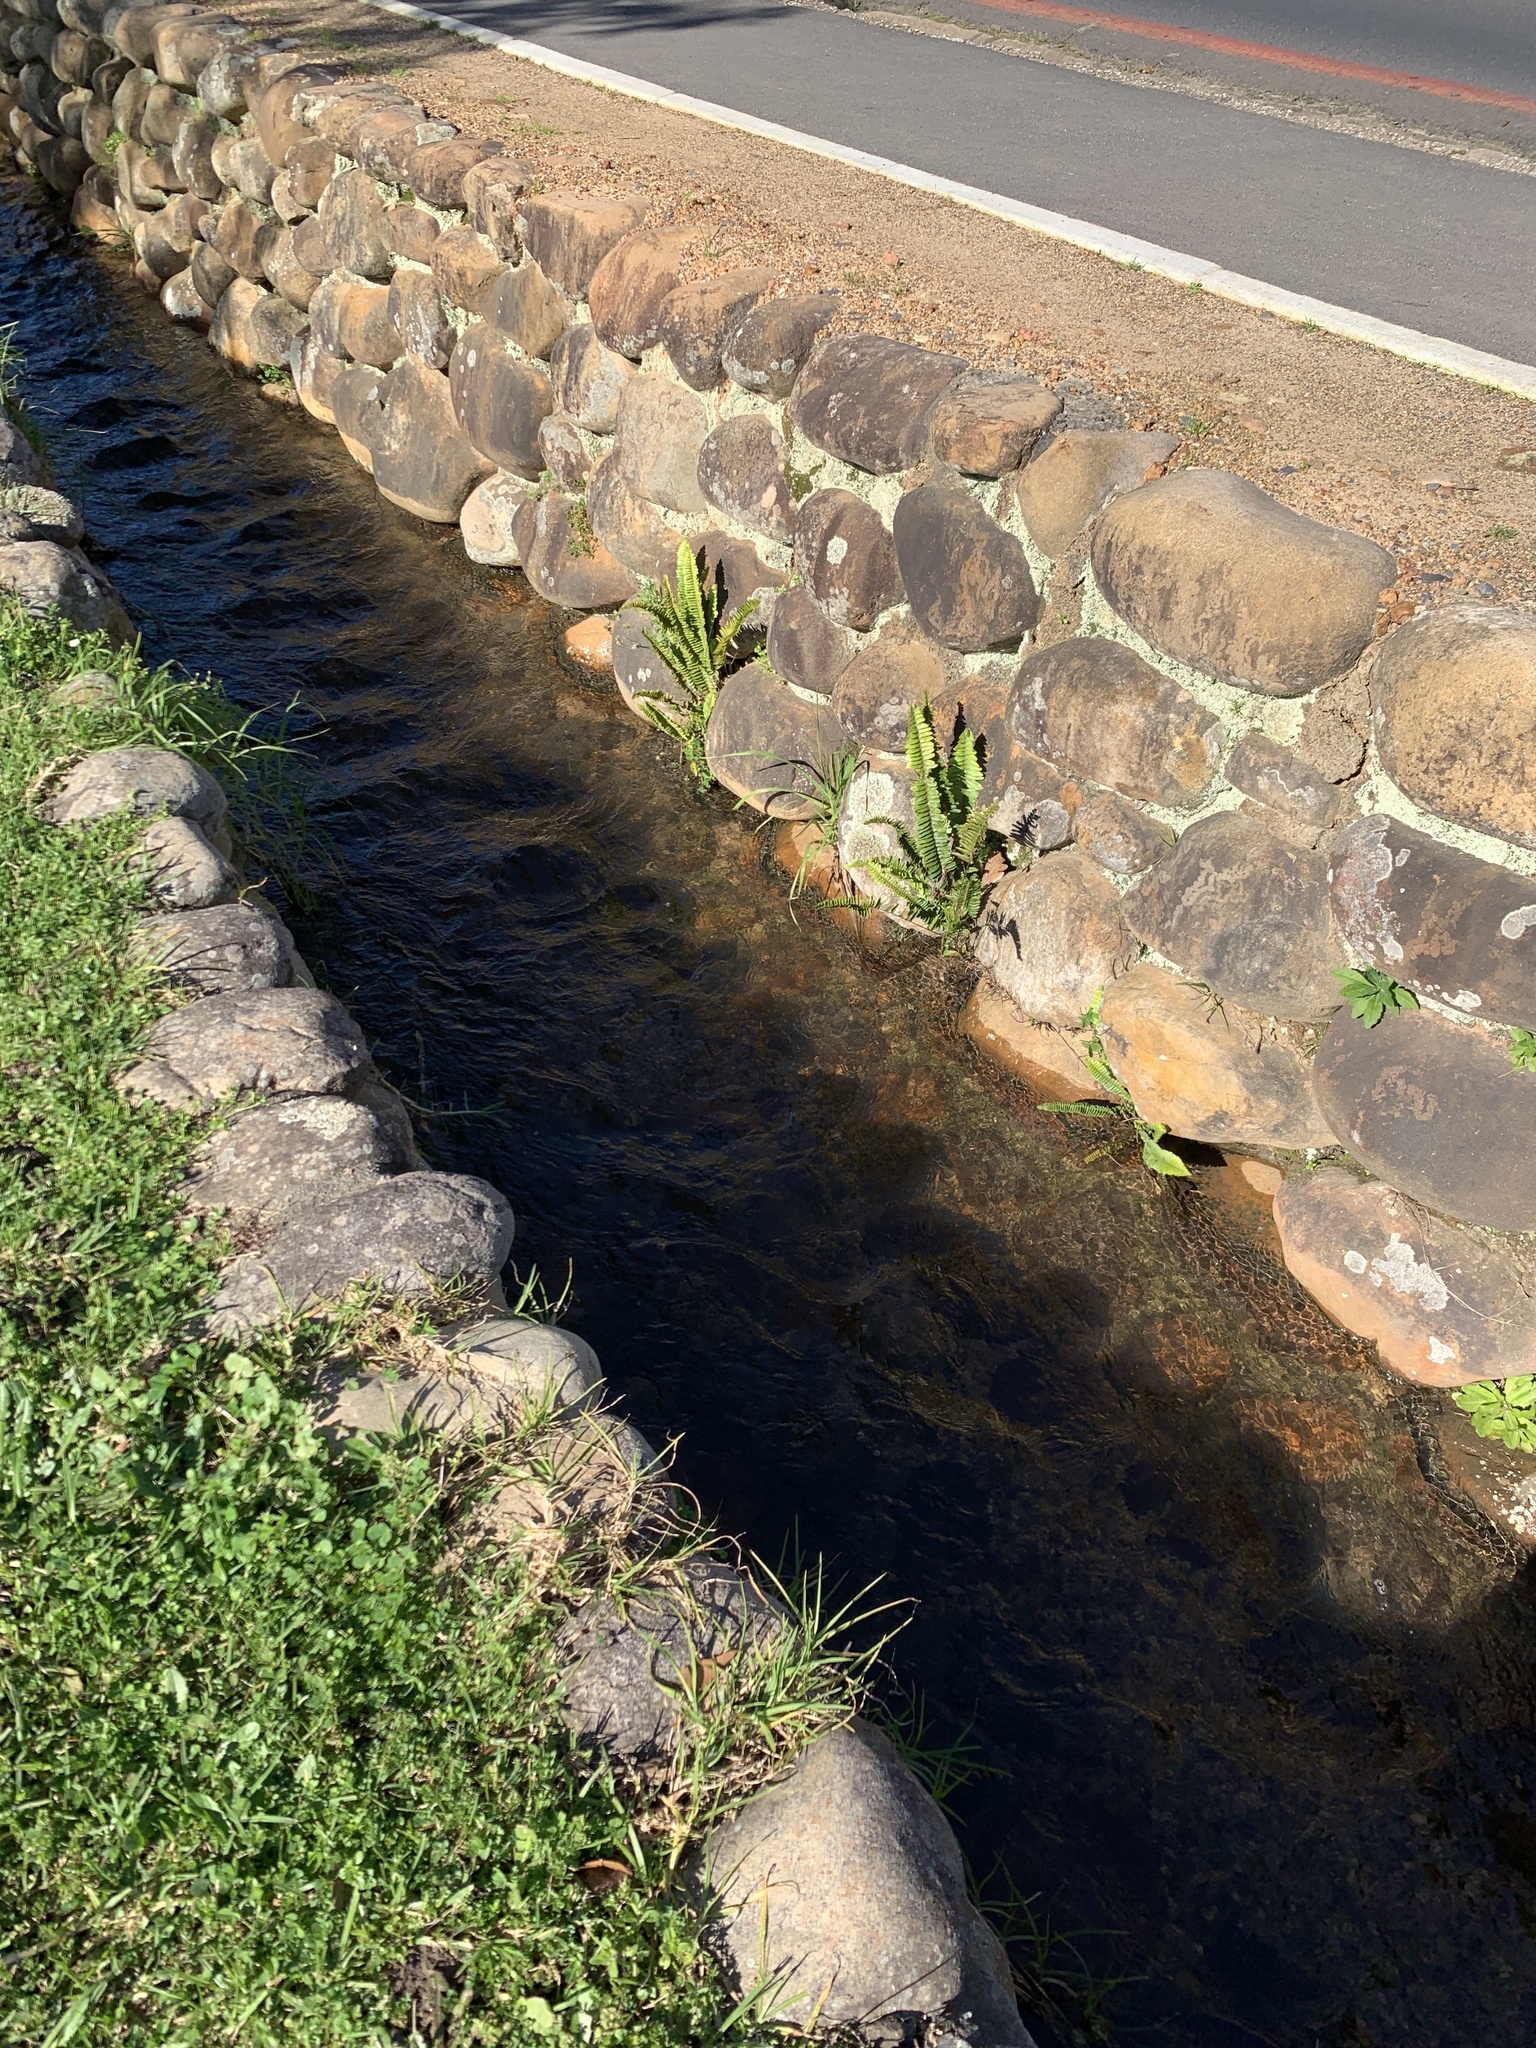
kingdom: Plantae
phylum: Tracheophyta
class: Polypodiopsida
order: Polypodiales
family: Nephrolepidaceae
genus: Nephrolepis
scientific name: Nephrolepis cordifolia
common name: Narrow swordfern
